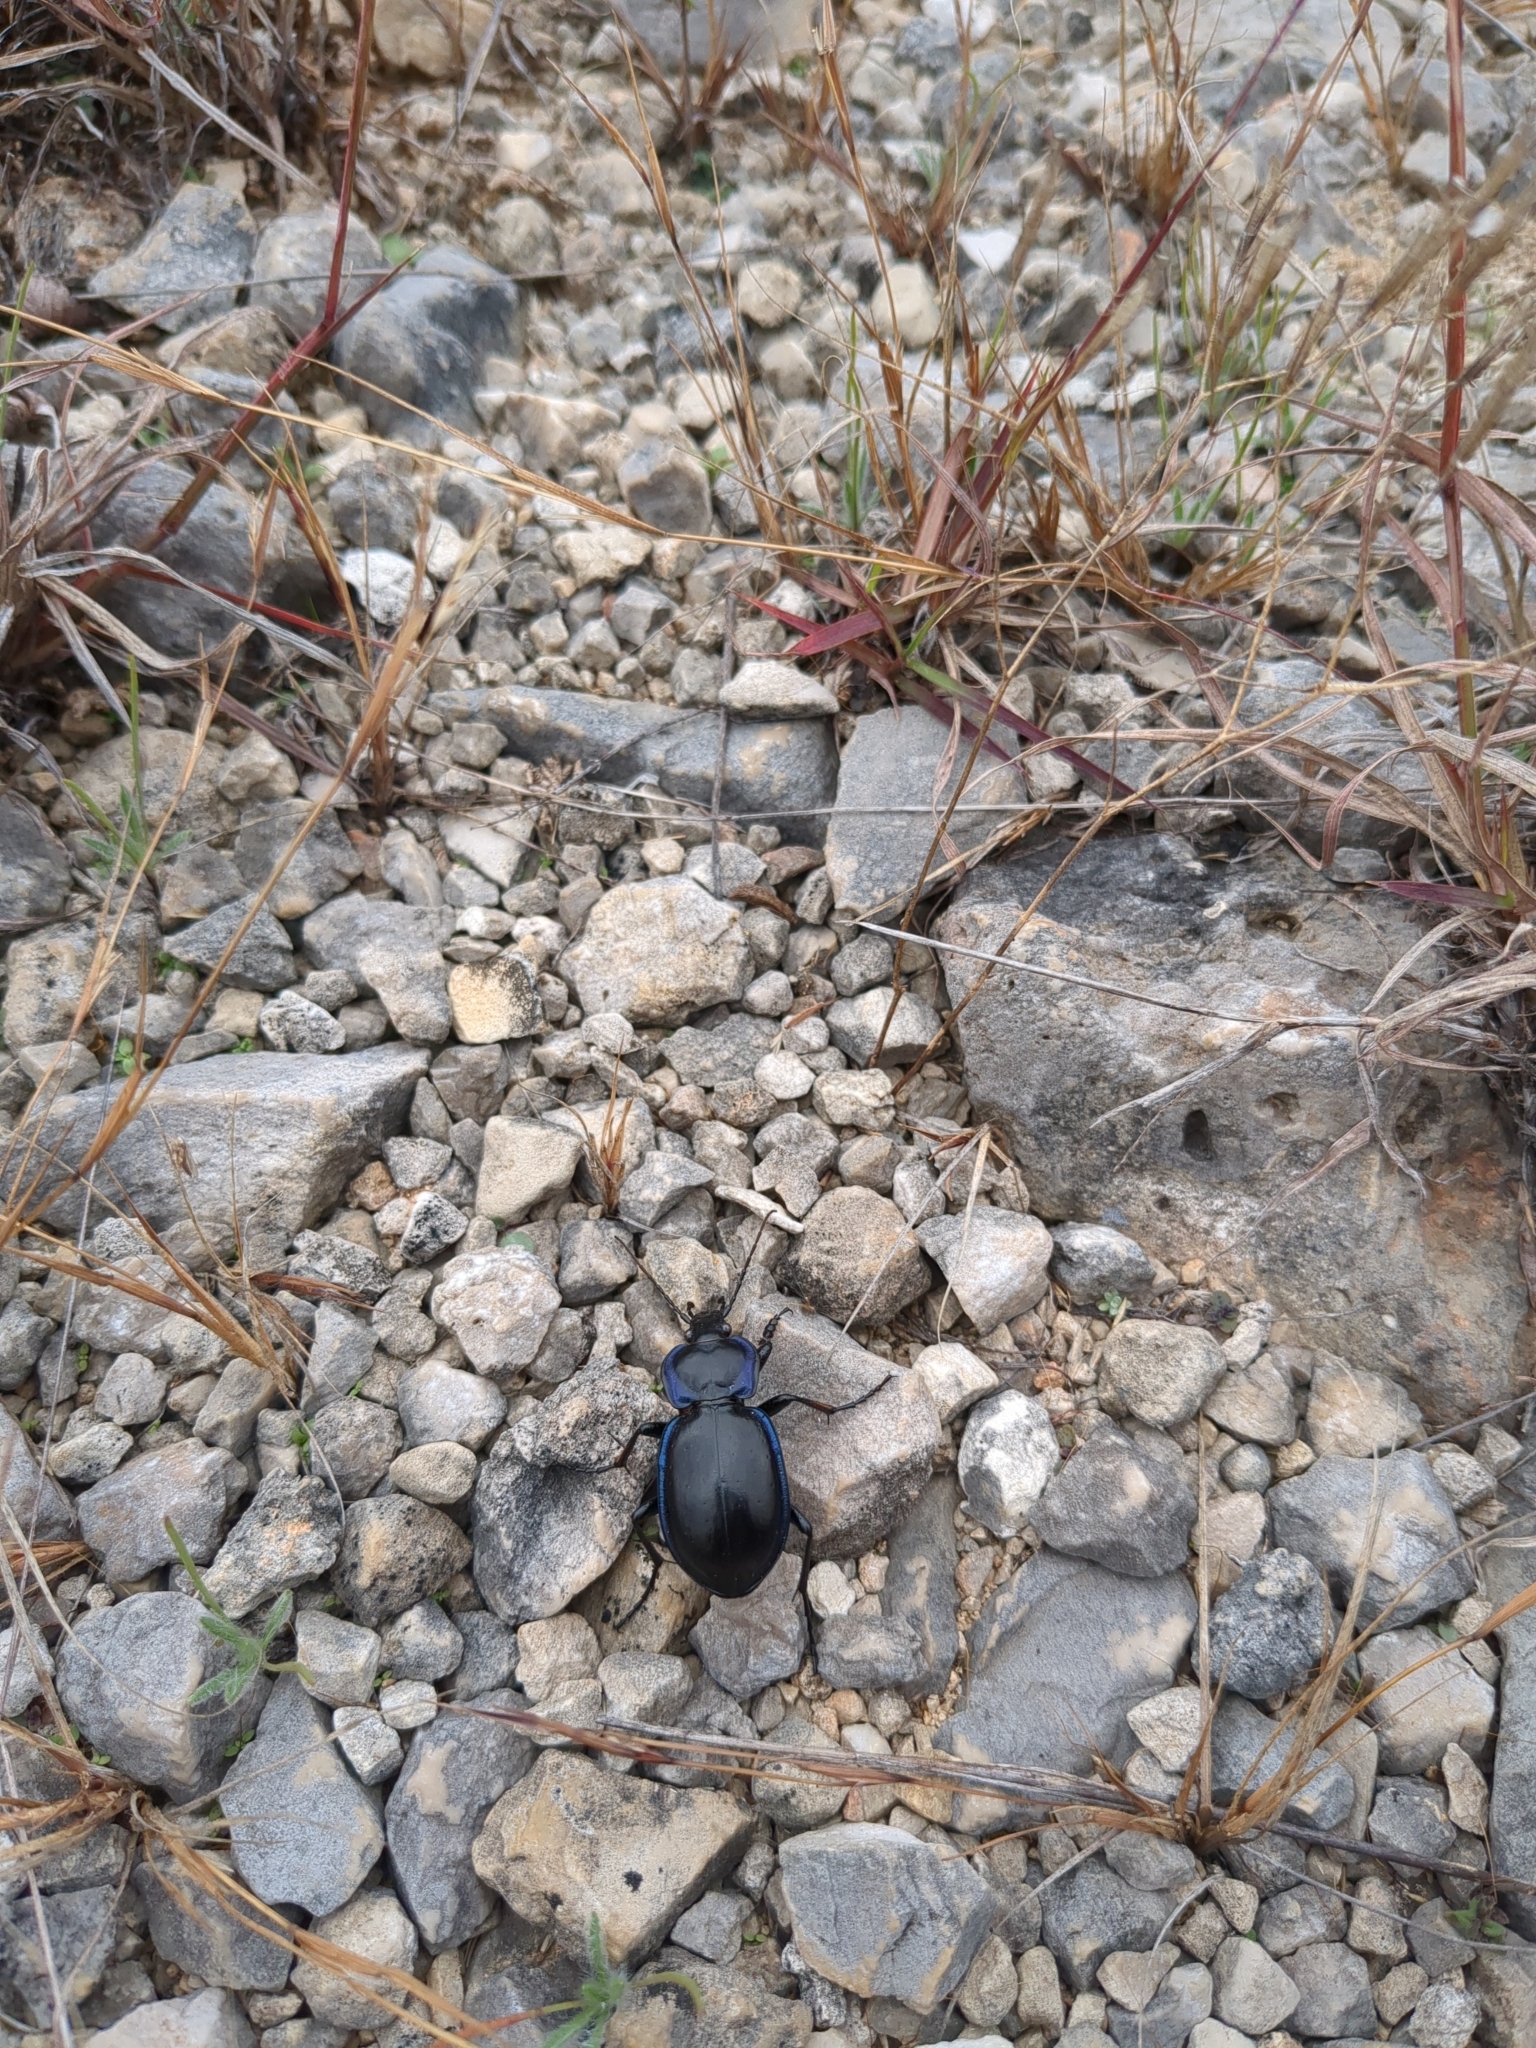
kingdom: Animalia
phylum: Arthropoda
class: Insecta
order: Coleoptera
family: Carabidae
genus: Carabus
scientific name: Carabus finitimus
